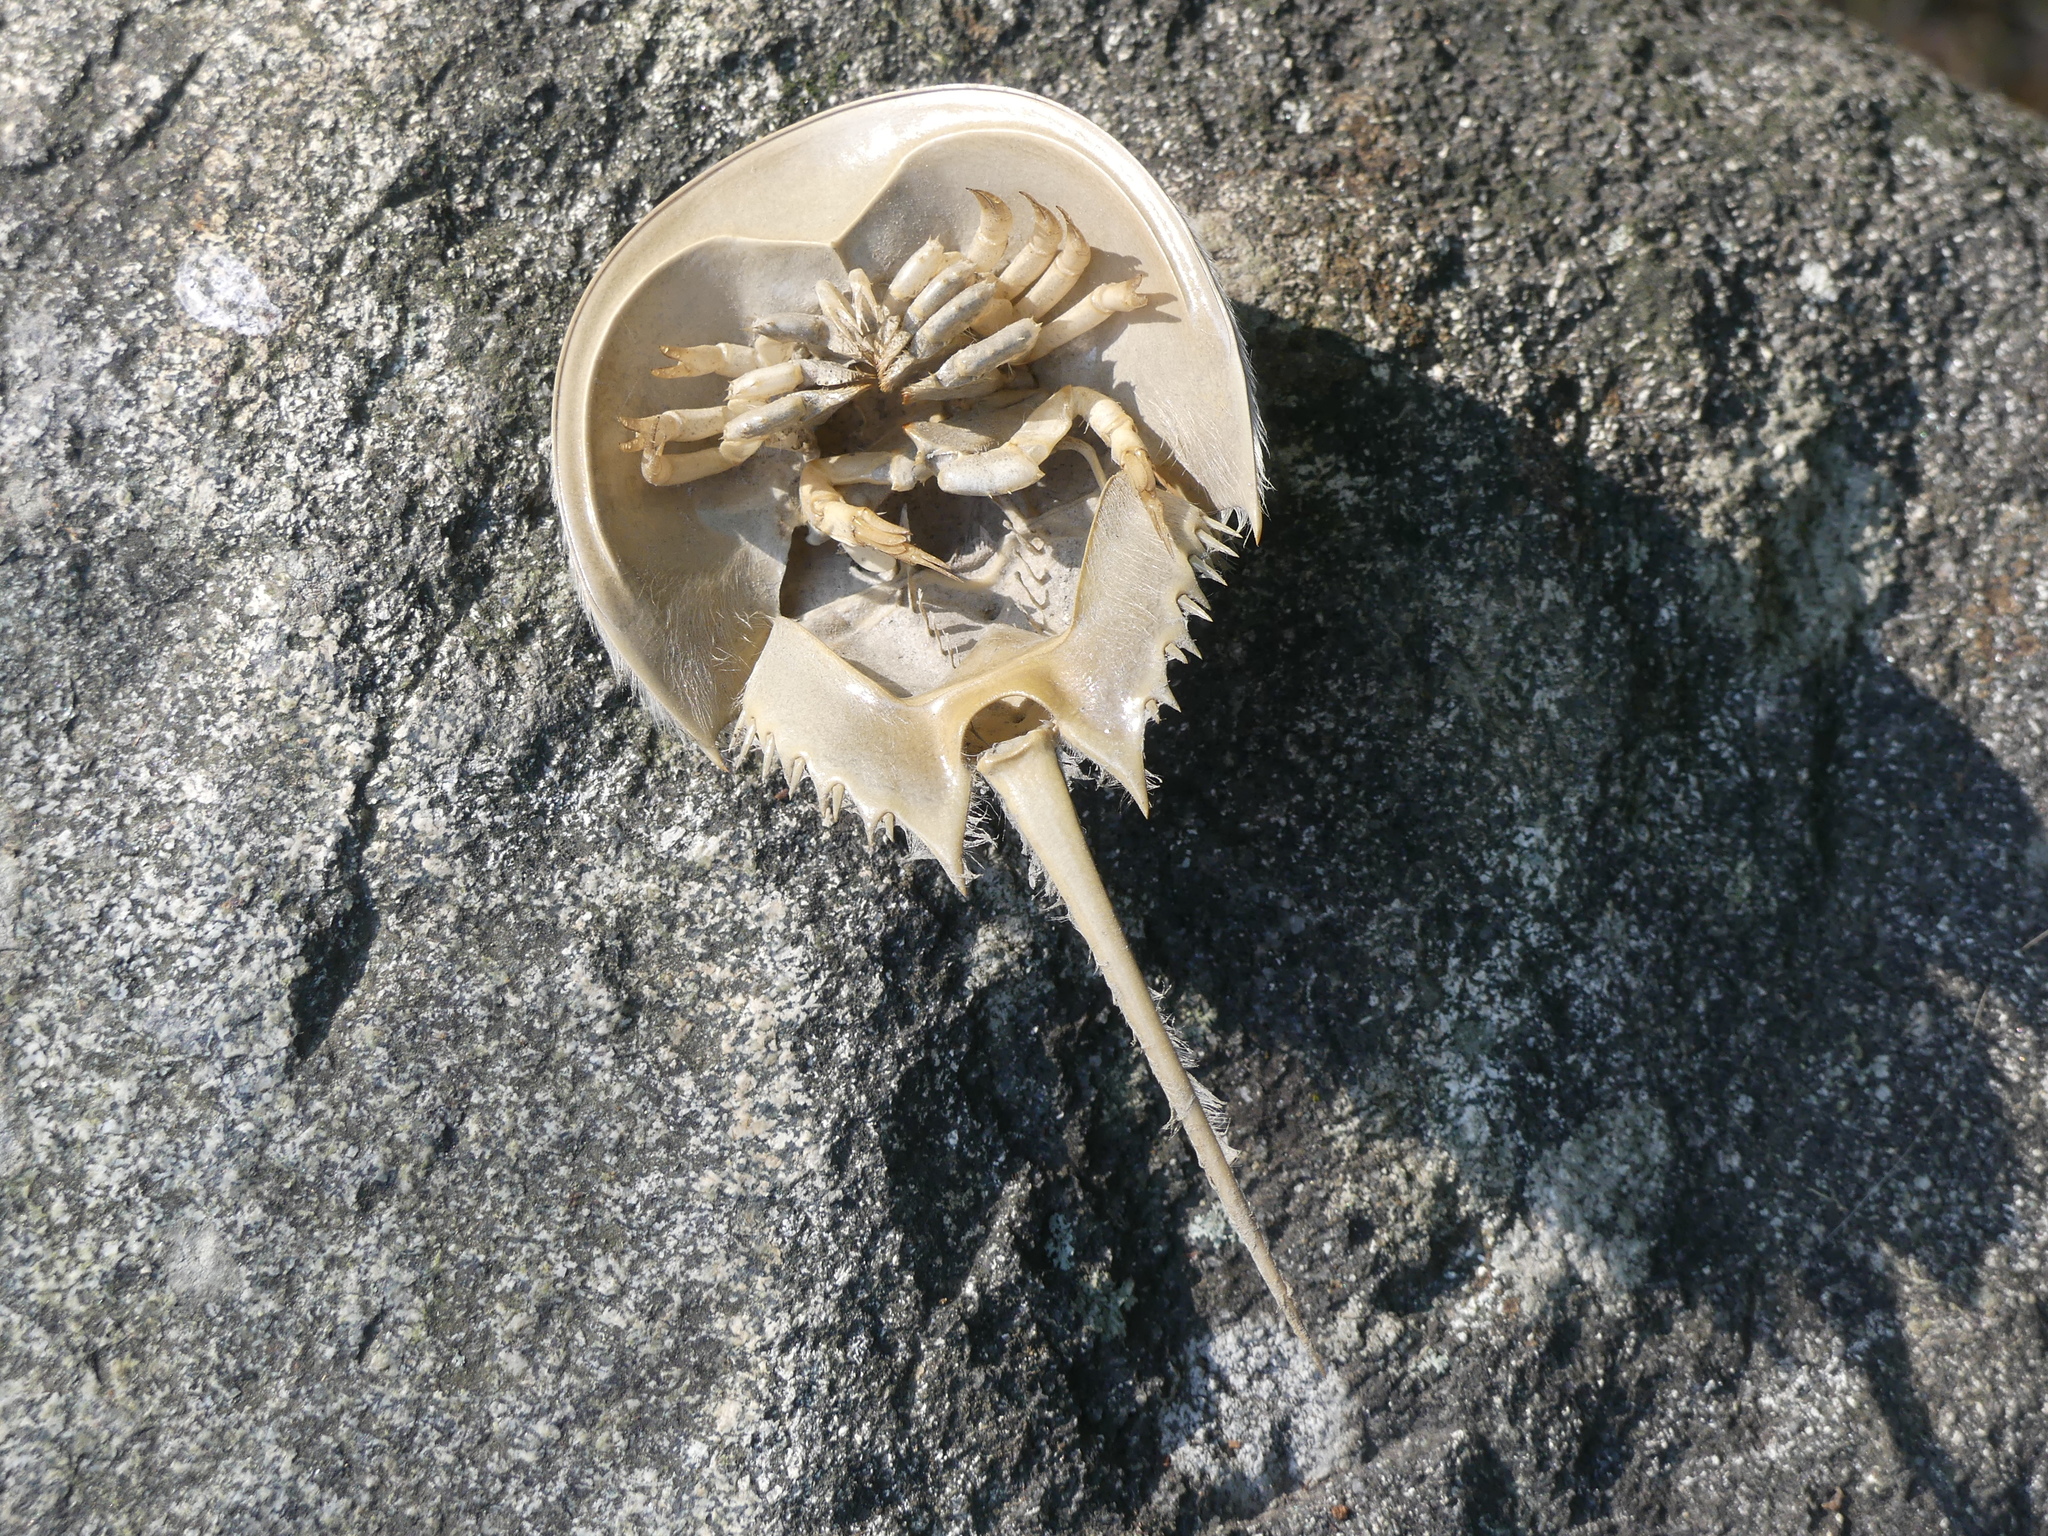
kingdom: Animalia
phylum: Arthropoda
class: Merostomata
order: Xiphosurida
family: Limulidae
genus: Limulus
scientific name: Limulus polyphemus
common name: Horseshoe crab
